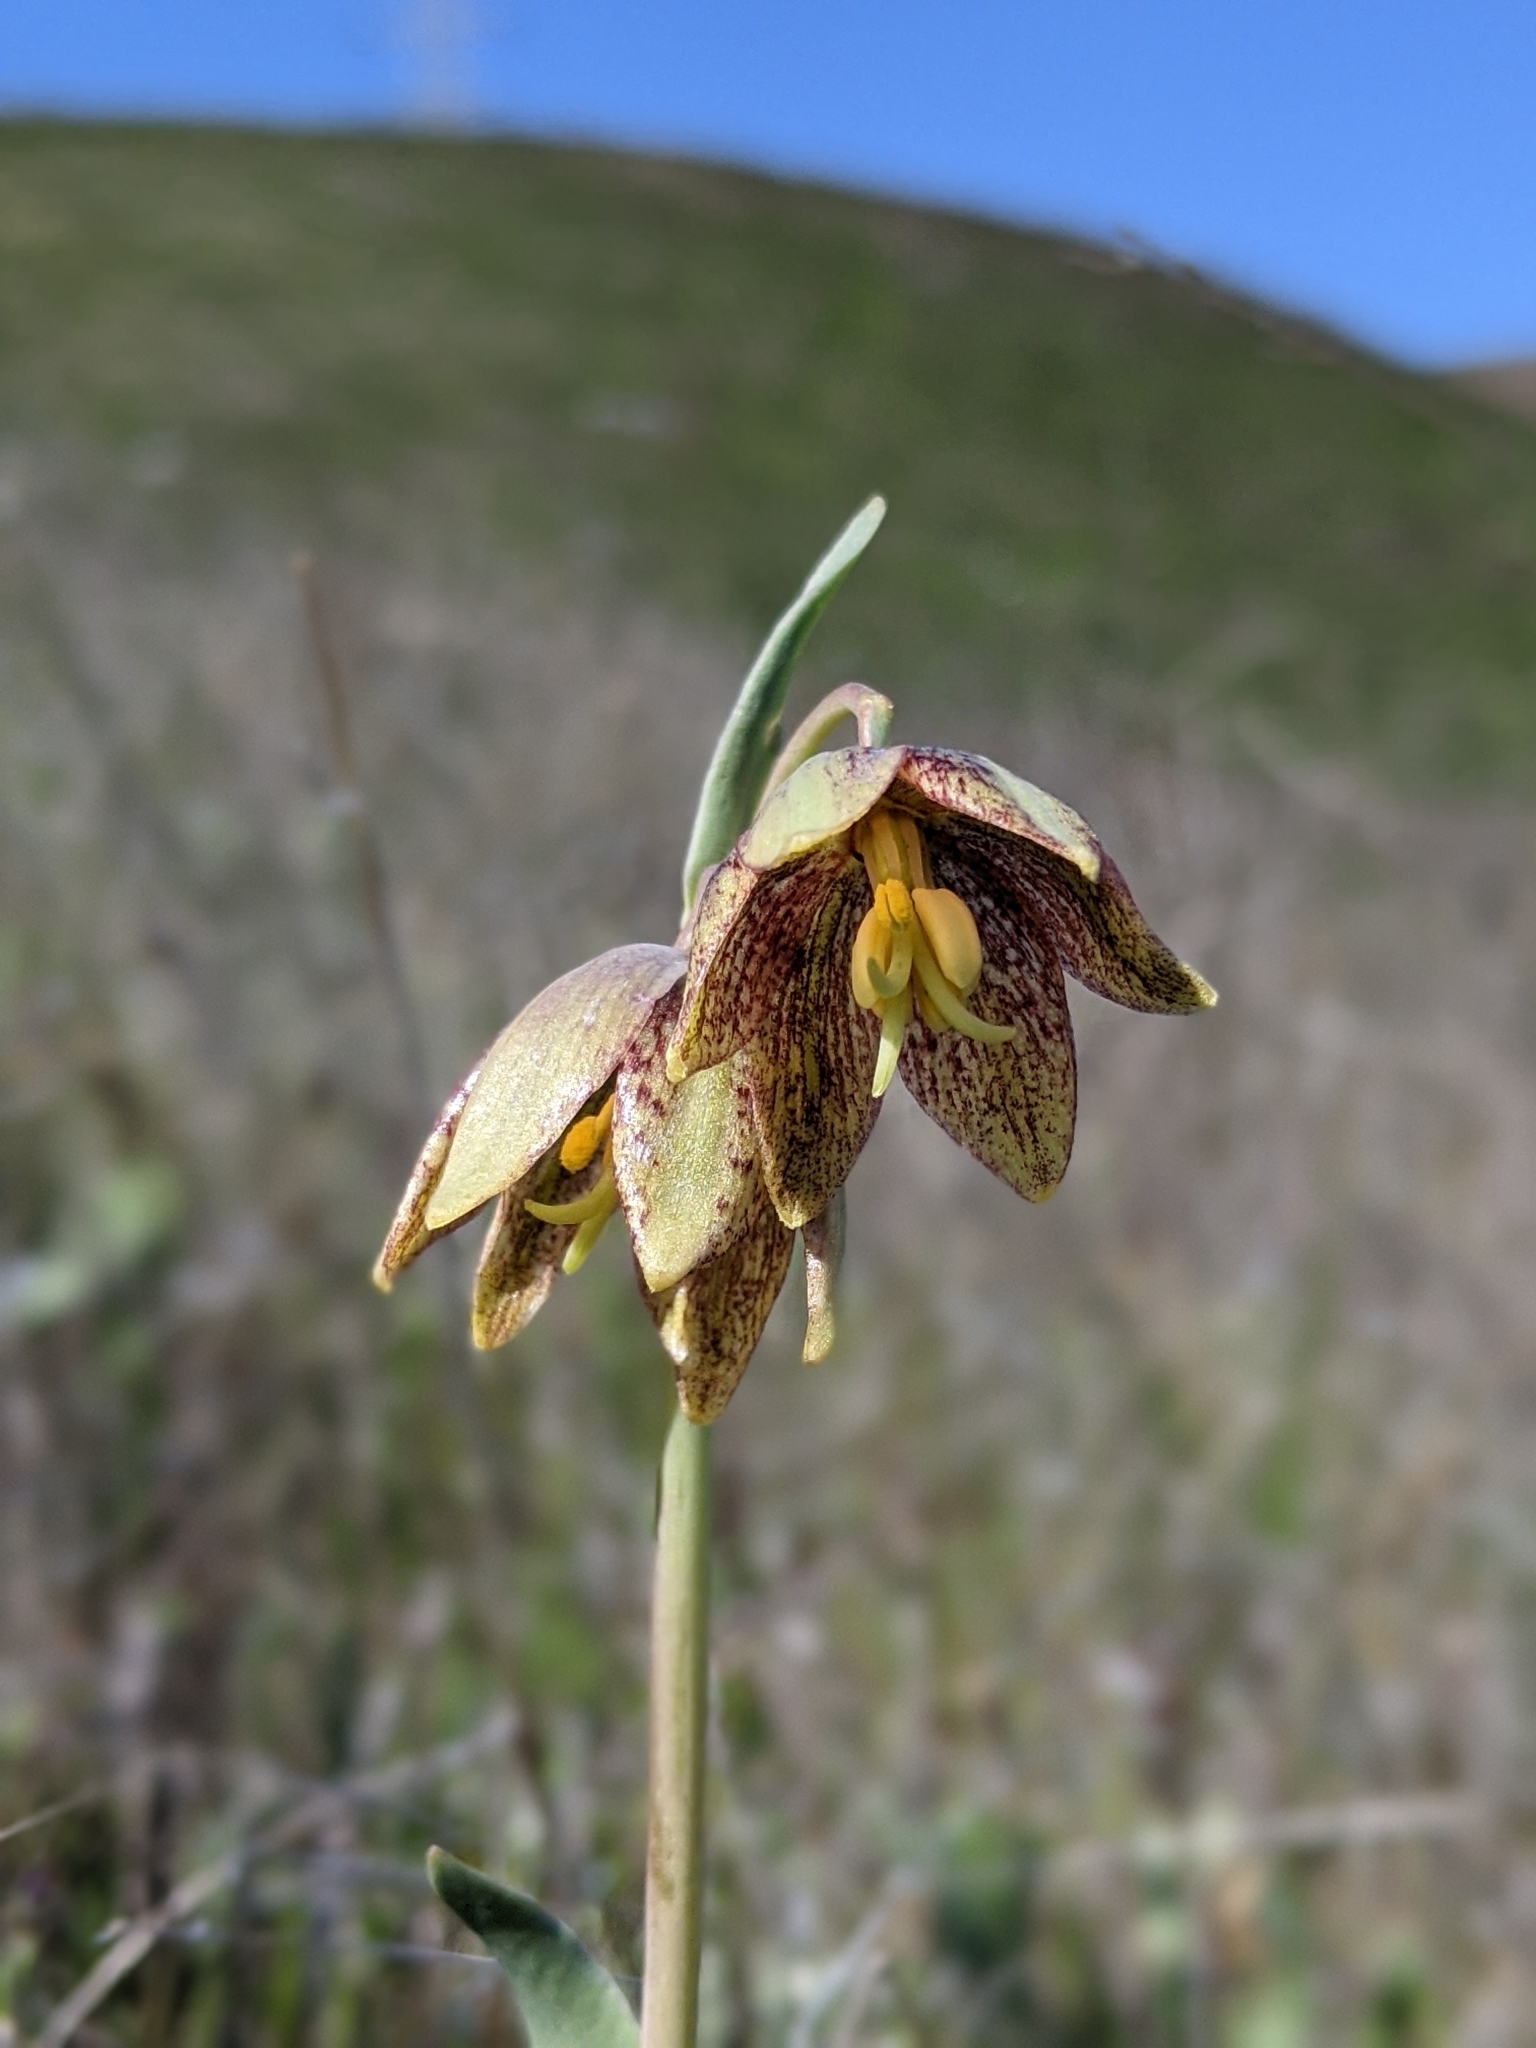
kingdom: Plantae
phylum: Tracheophyta
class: Liliopsida
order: Liliales
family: Liliaceae
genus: Fritillaria
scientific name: Fritillaria agrestis
